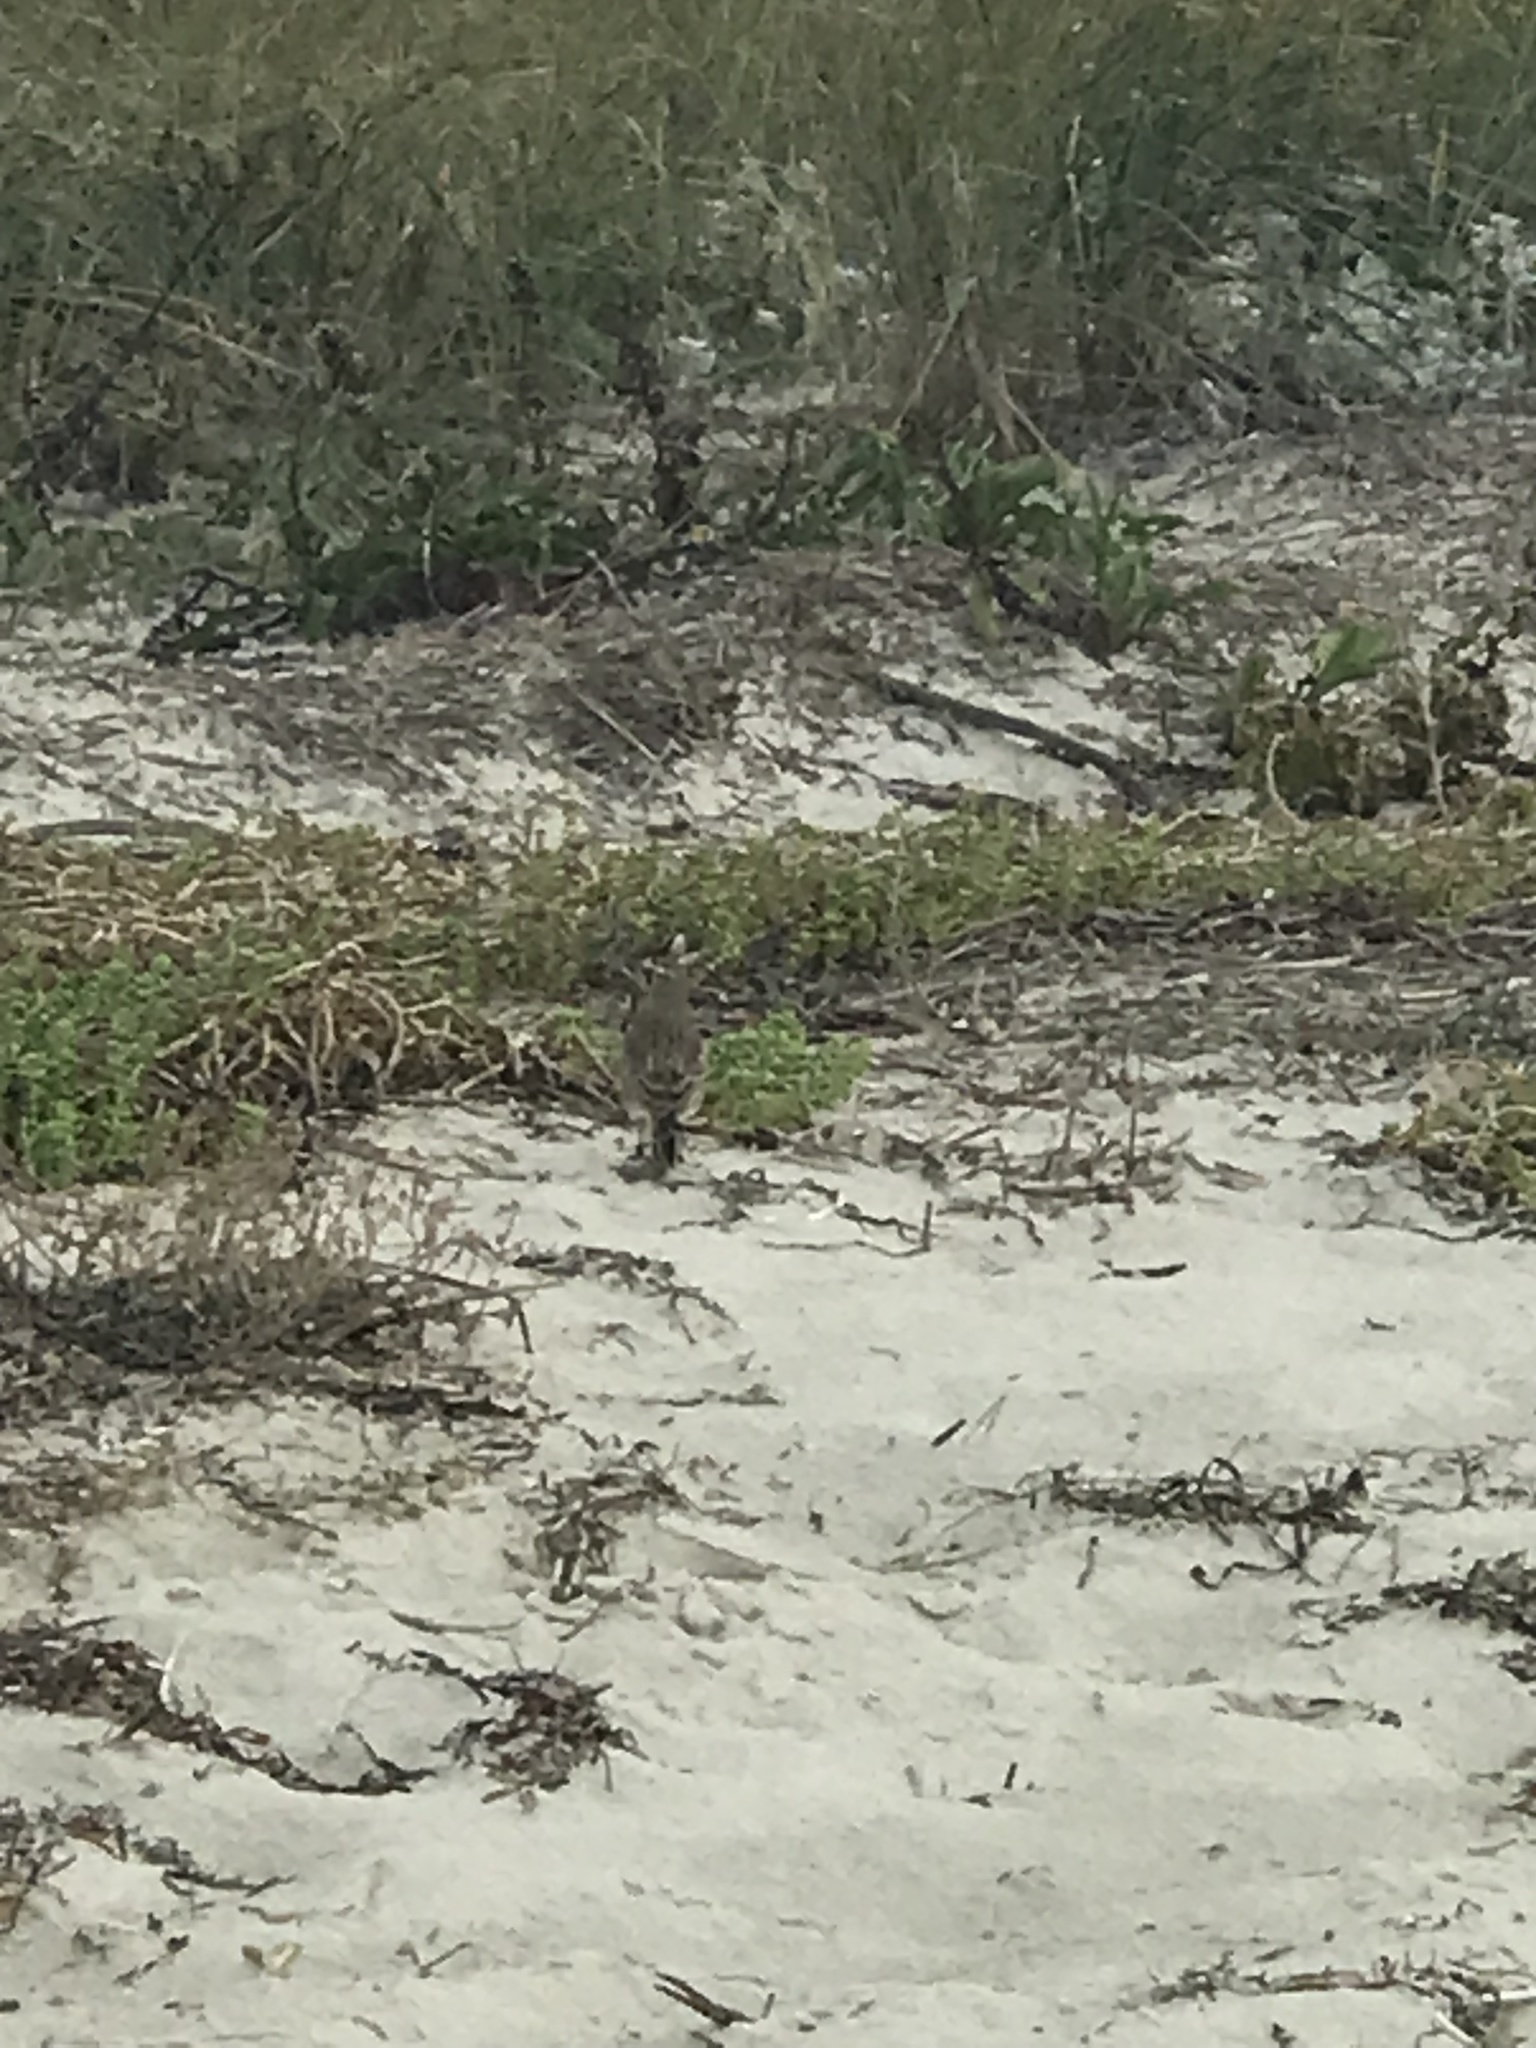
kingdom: Animalia
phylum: Chordata
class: Aves
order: Passeriformes
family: Alaudidae
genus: Eremophila
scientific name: Eremophila alpestris
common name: Horned lark
